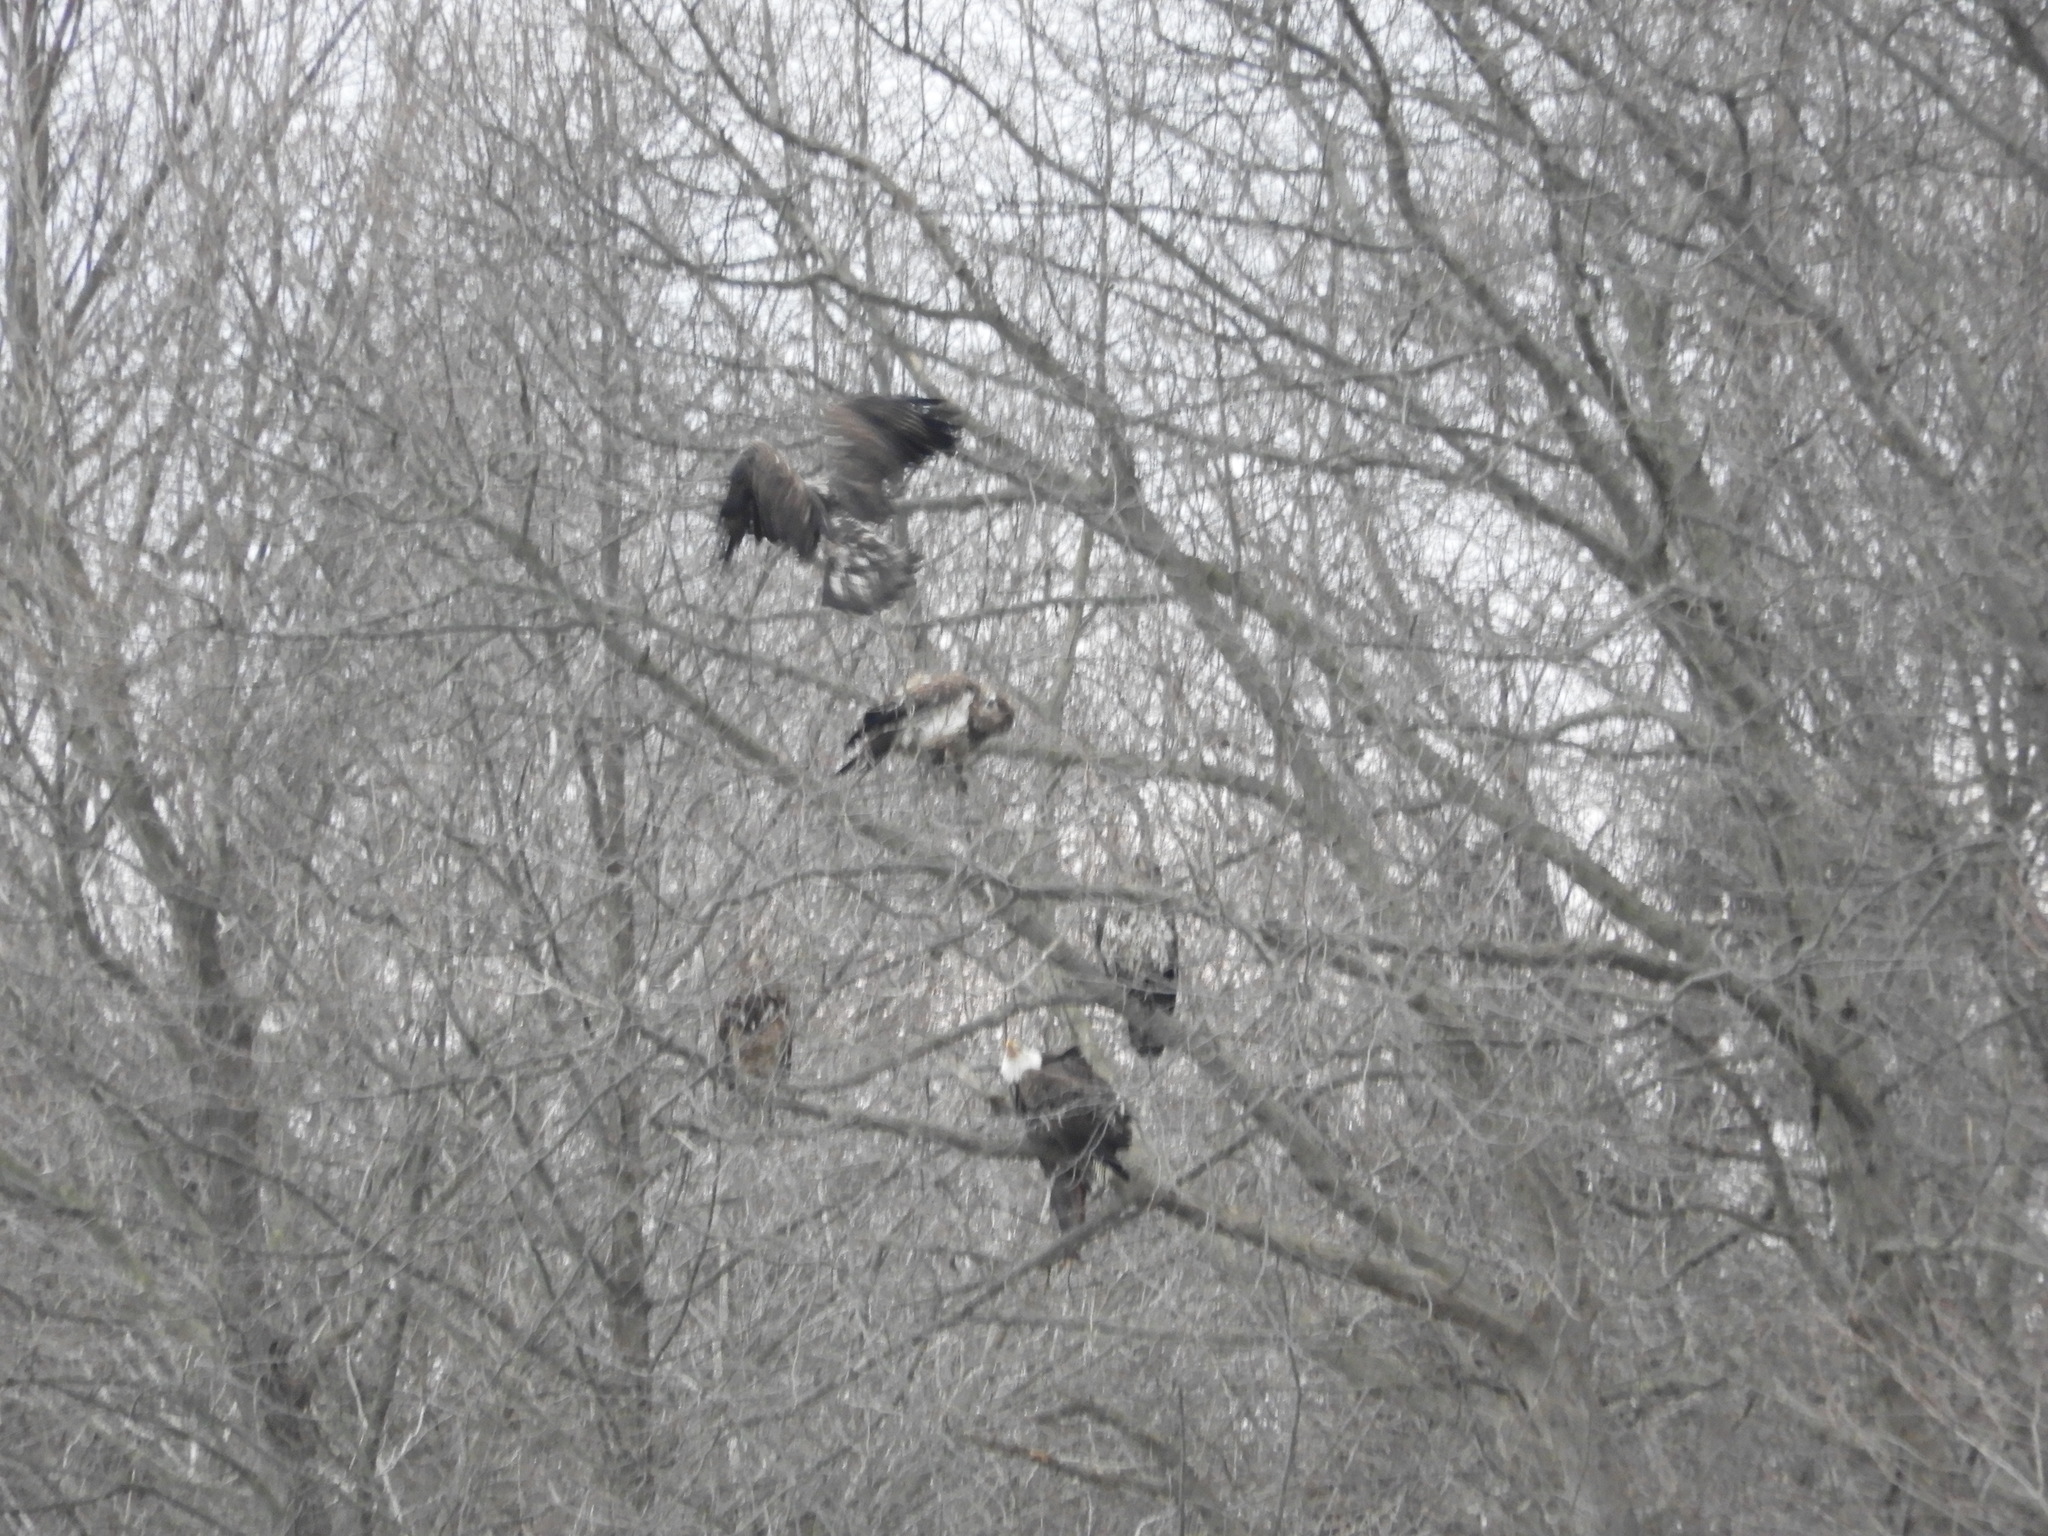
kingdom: Animalia
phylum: Chordata
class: Aves
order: Accipitriformes
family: Accipitridae
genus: Haliaeetus
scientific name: Haliaeetus leucocephalus
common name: Bald eagle
